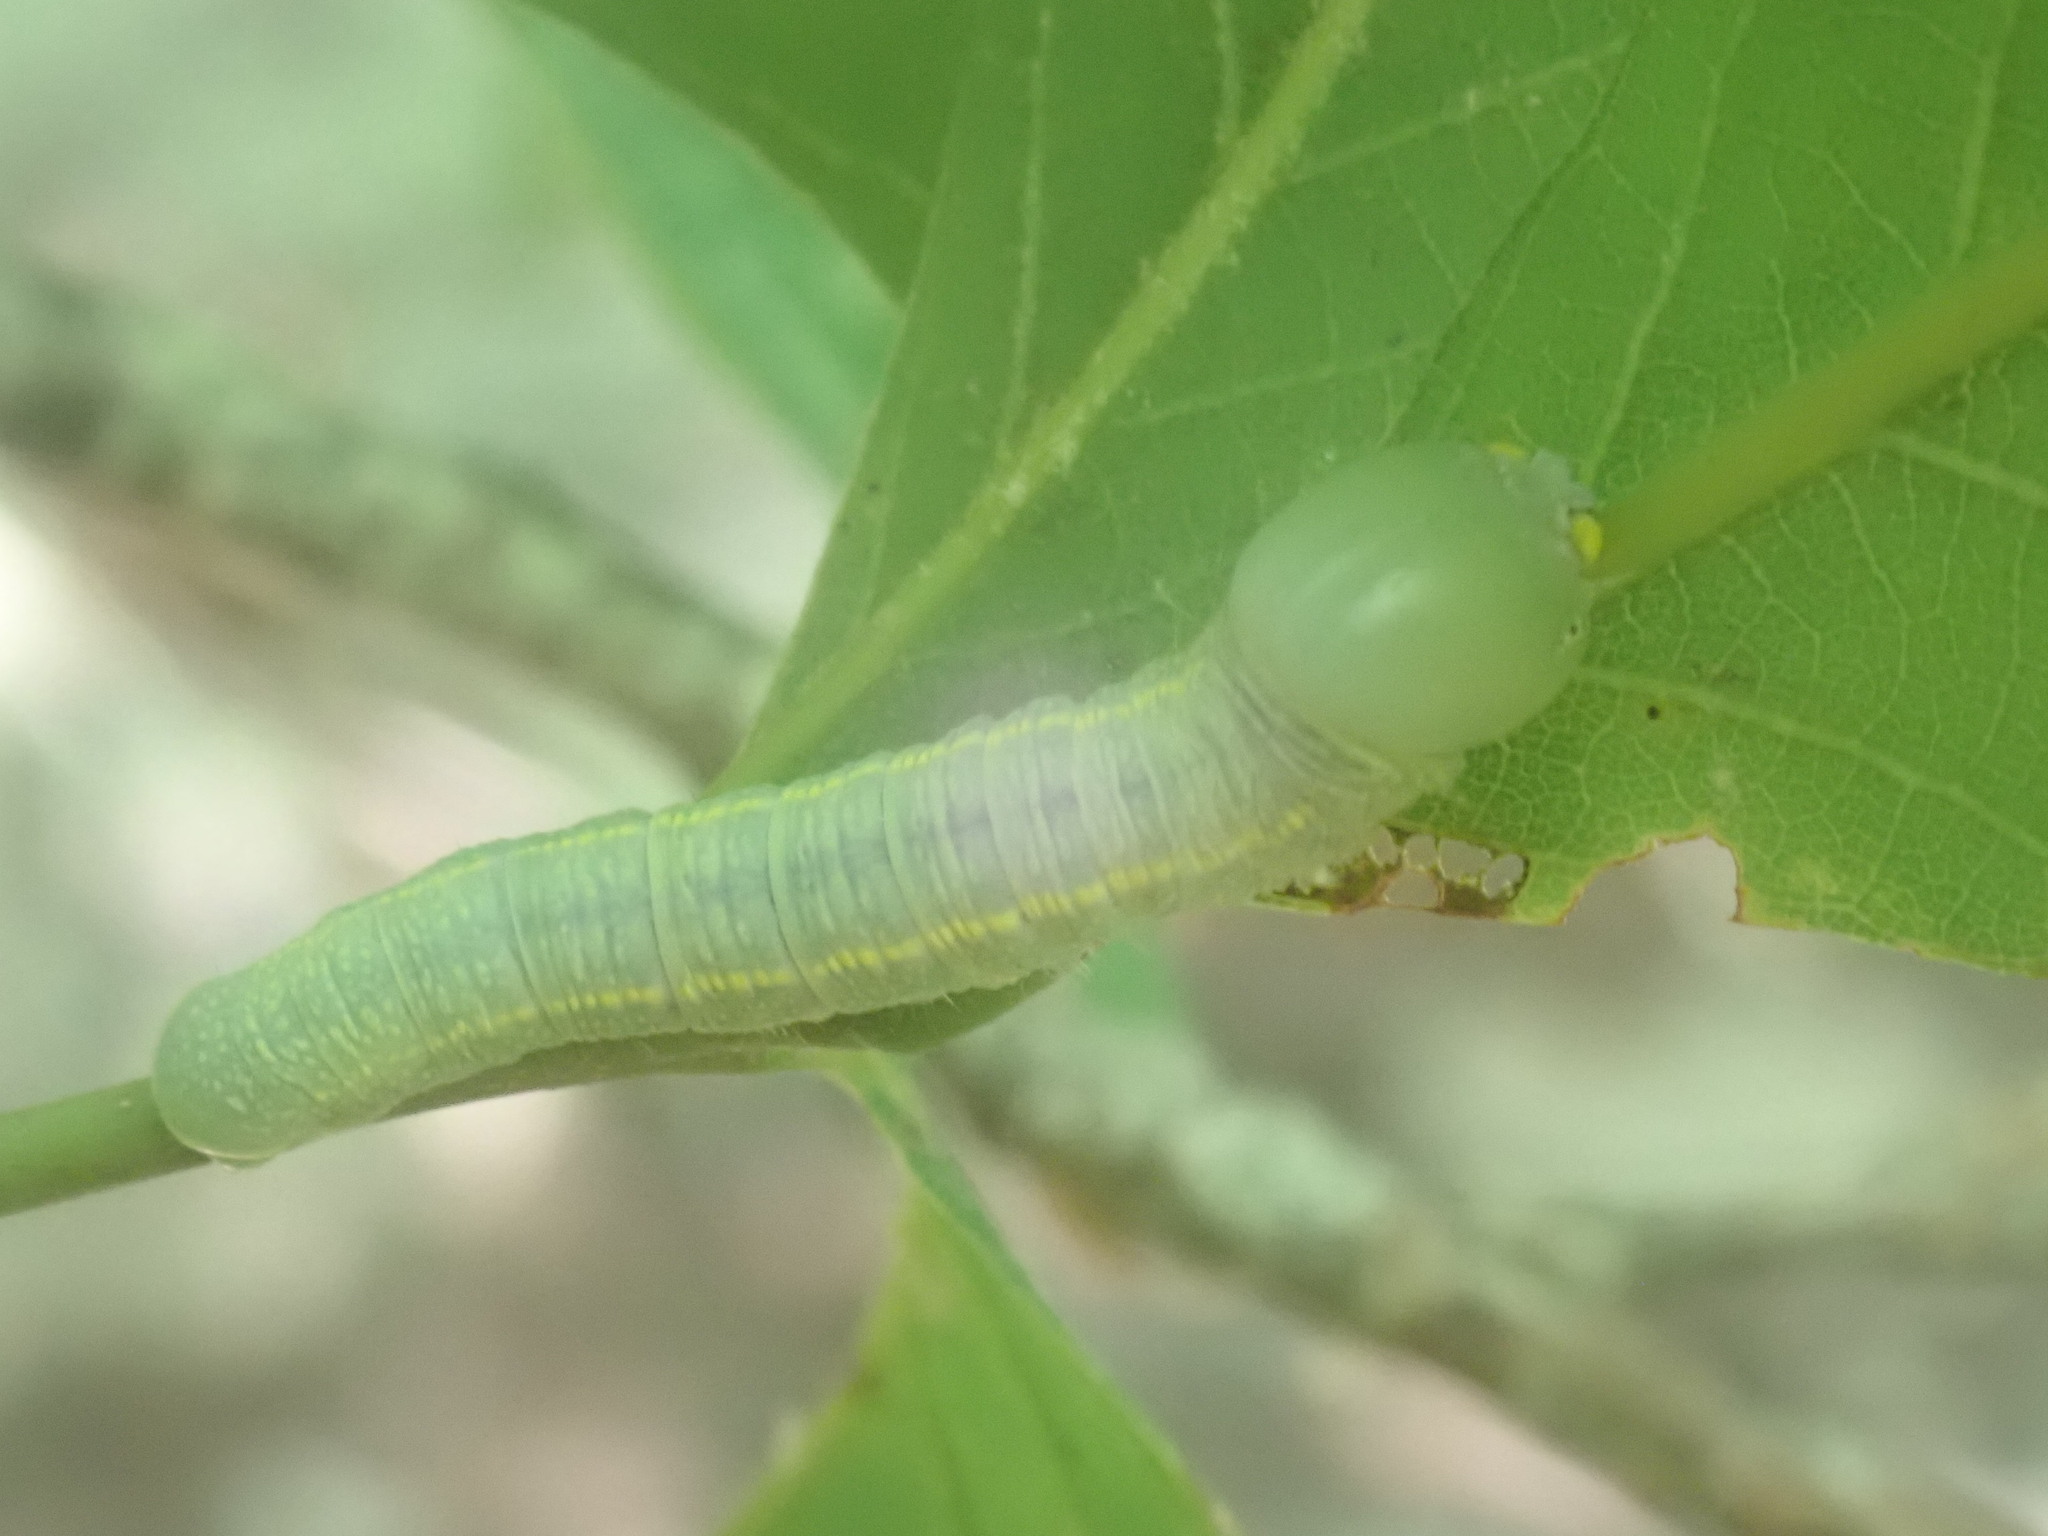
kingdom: Animalia
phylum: Arthropoda
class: Insecta
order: Lepidoptera
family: Notodontidae
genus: Nadata
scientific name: Nadata gibbosa
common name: White-dotted prominent
